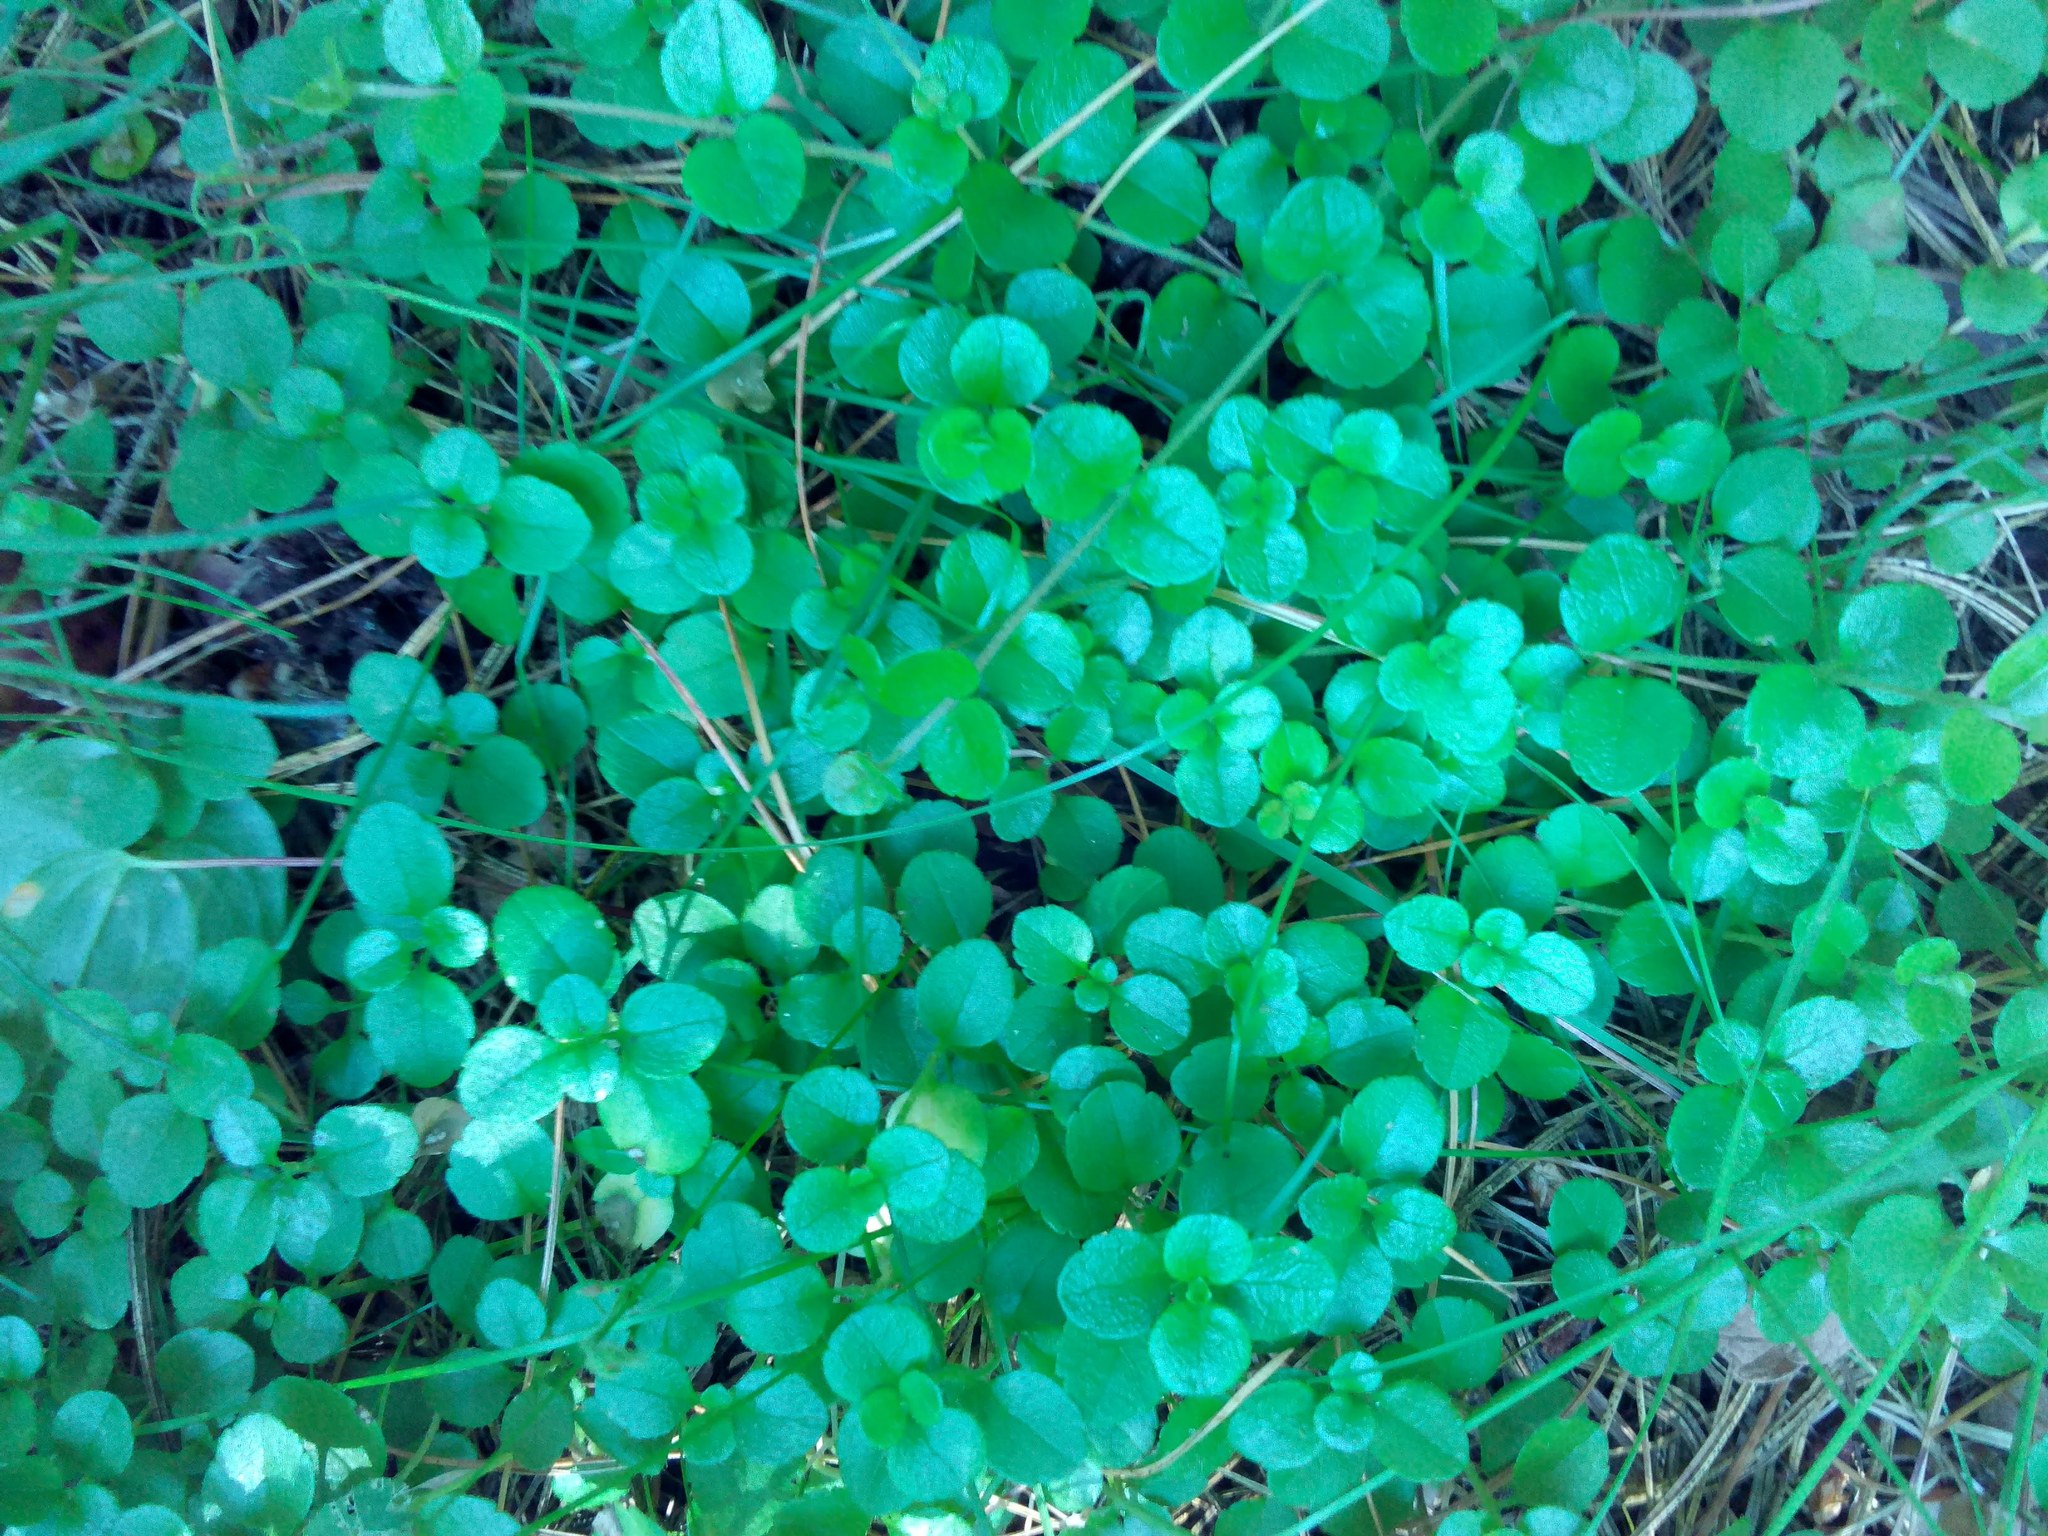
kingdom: Plantae
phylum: Tracheophyta
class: Magnoliopsida
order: Dipsacales
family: Caprifoliaceae
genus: Linnaea
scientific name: Linnaea borealis
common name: Twinflower
